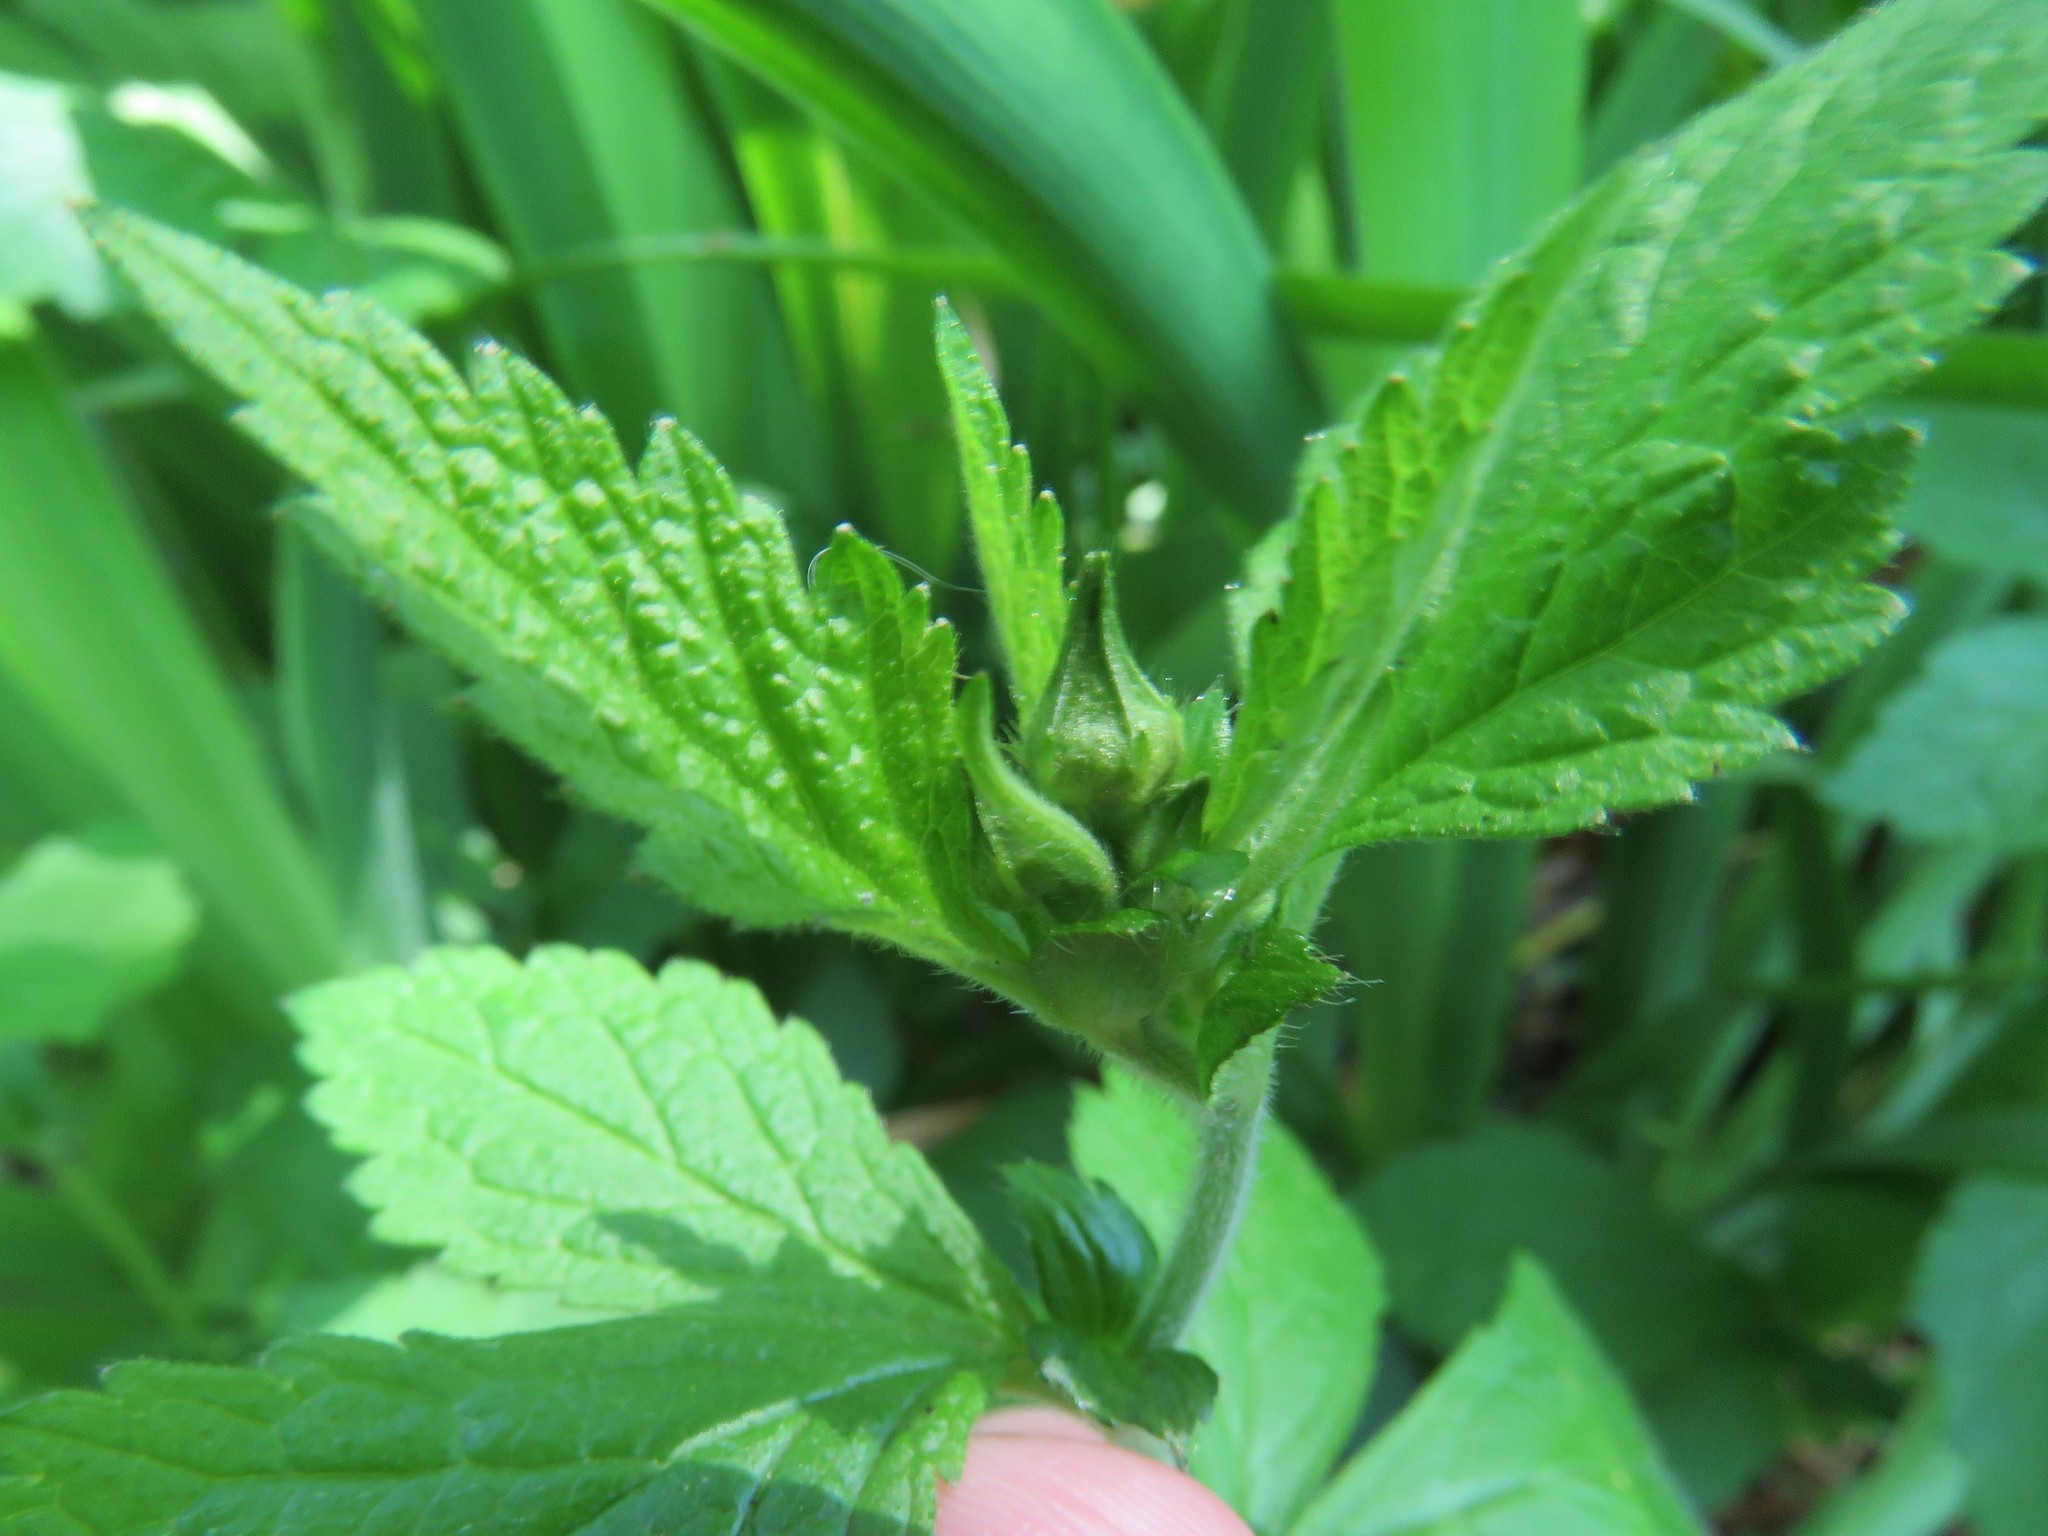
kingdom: Plantae
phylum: Tracheophyta
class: Magnoliopsida
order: Rosales
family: Rosaceae
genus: Geum
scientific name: Geum canadense
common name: White avens
